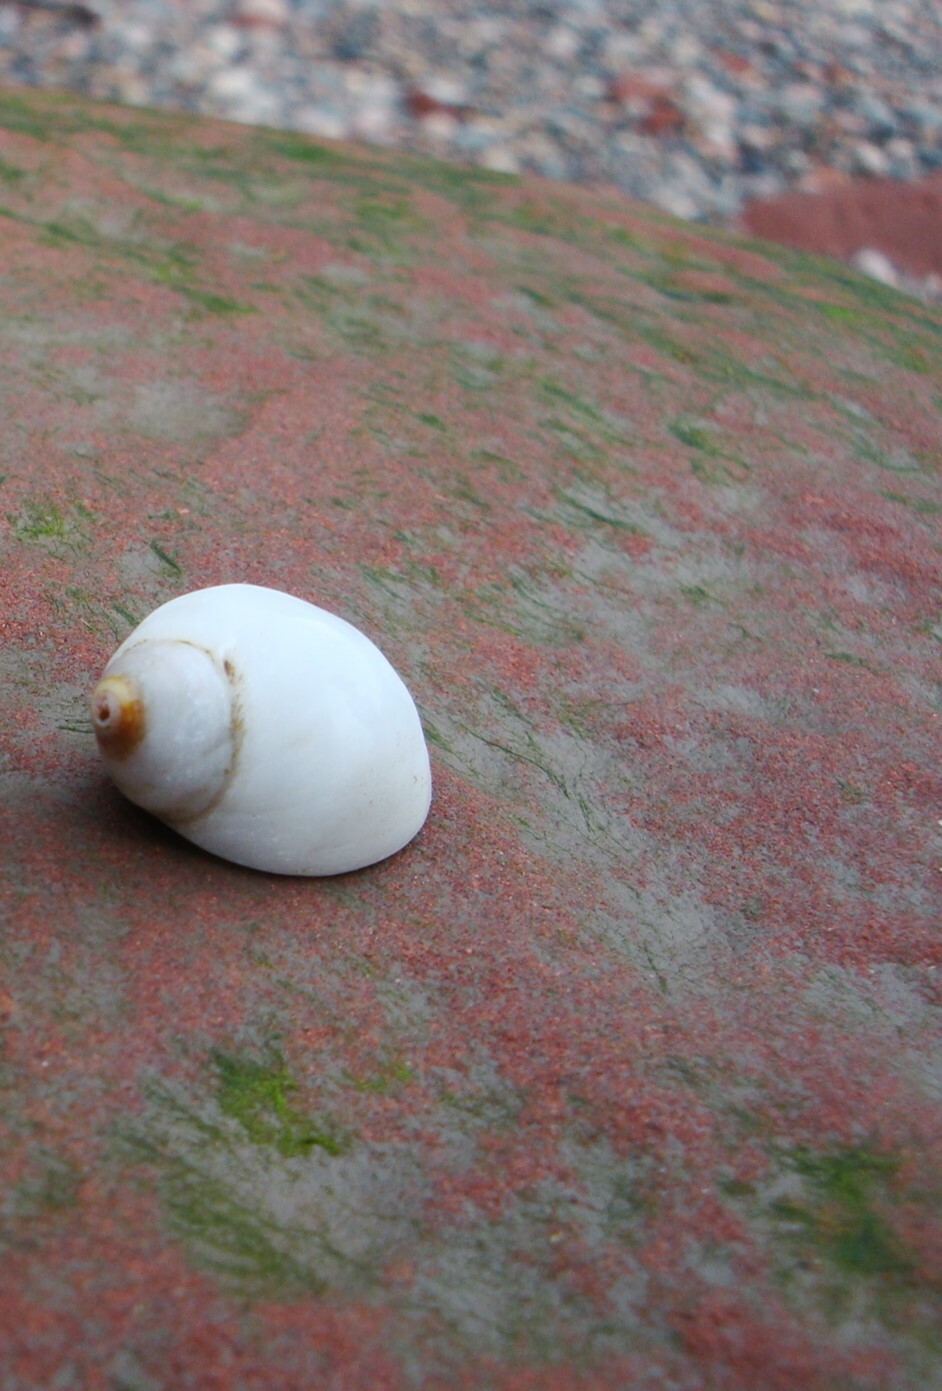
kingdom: Animalia
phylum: Mollusca
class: Gastropoda
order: Neogastropoda
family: Muricidae
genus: Nucella
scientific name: Nucella lapillus
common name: Dog whelk
